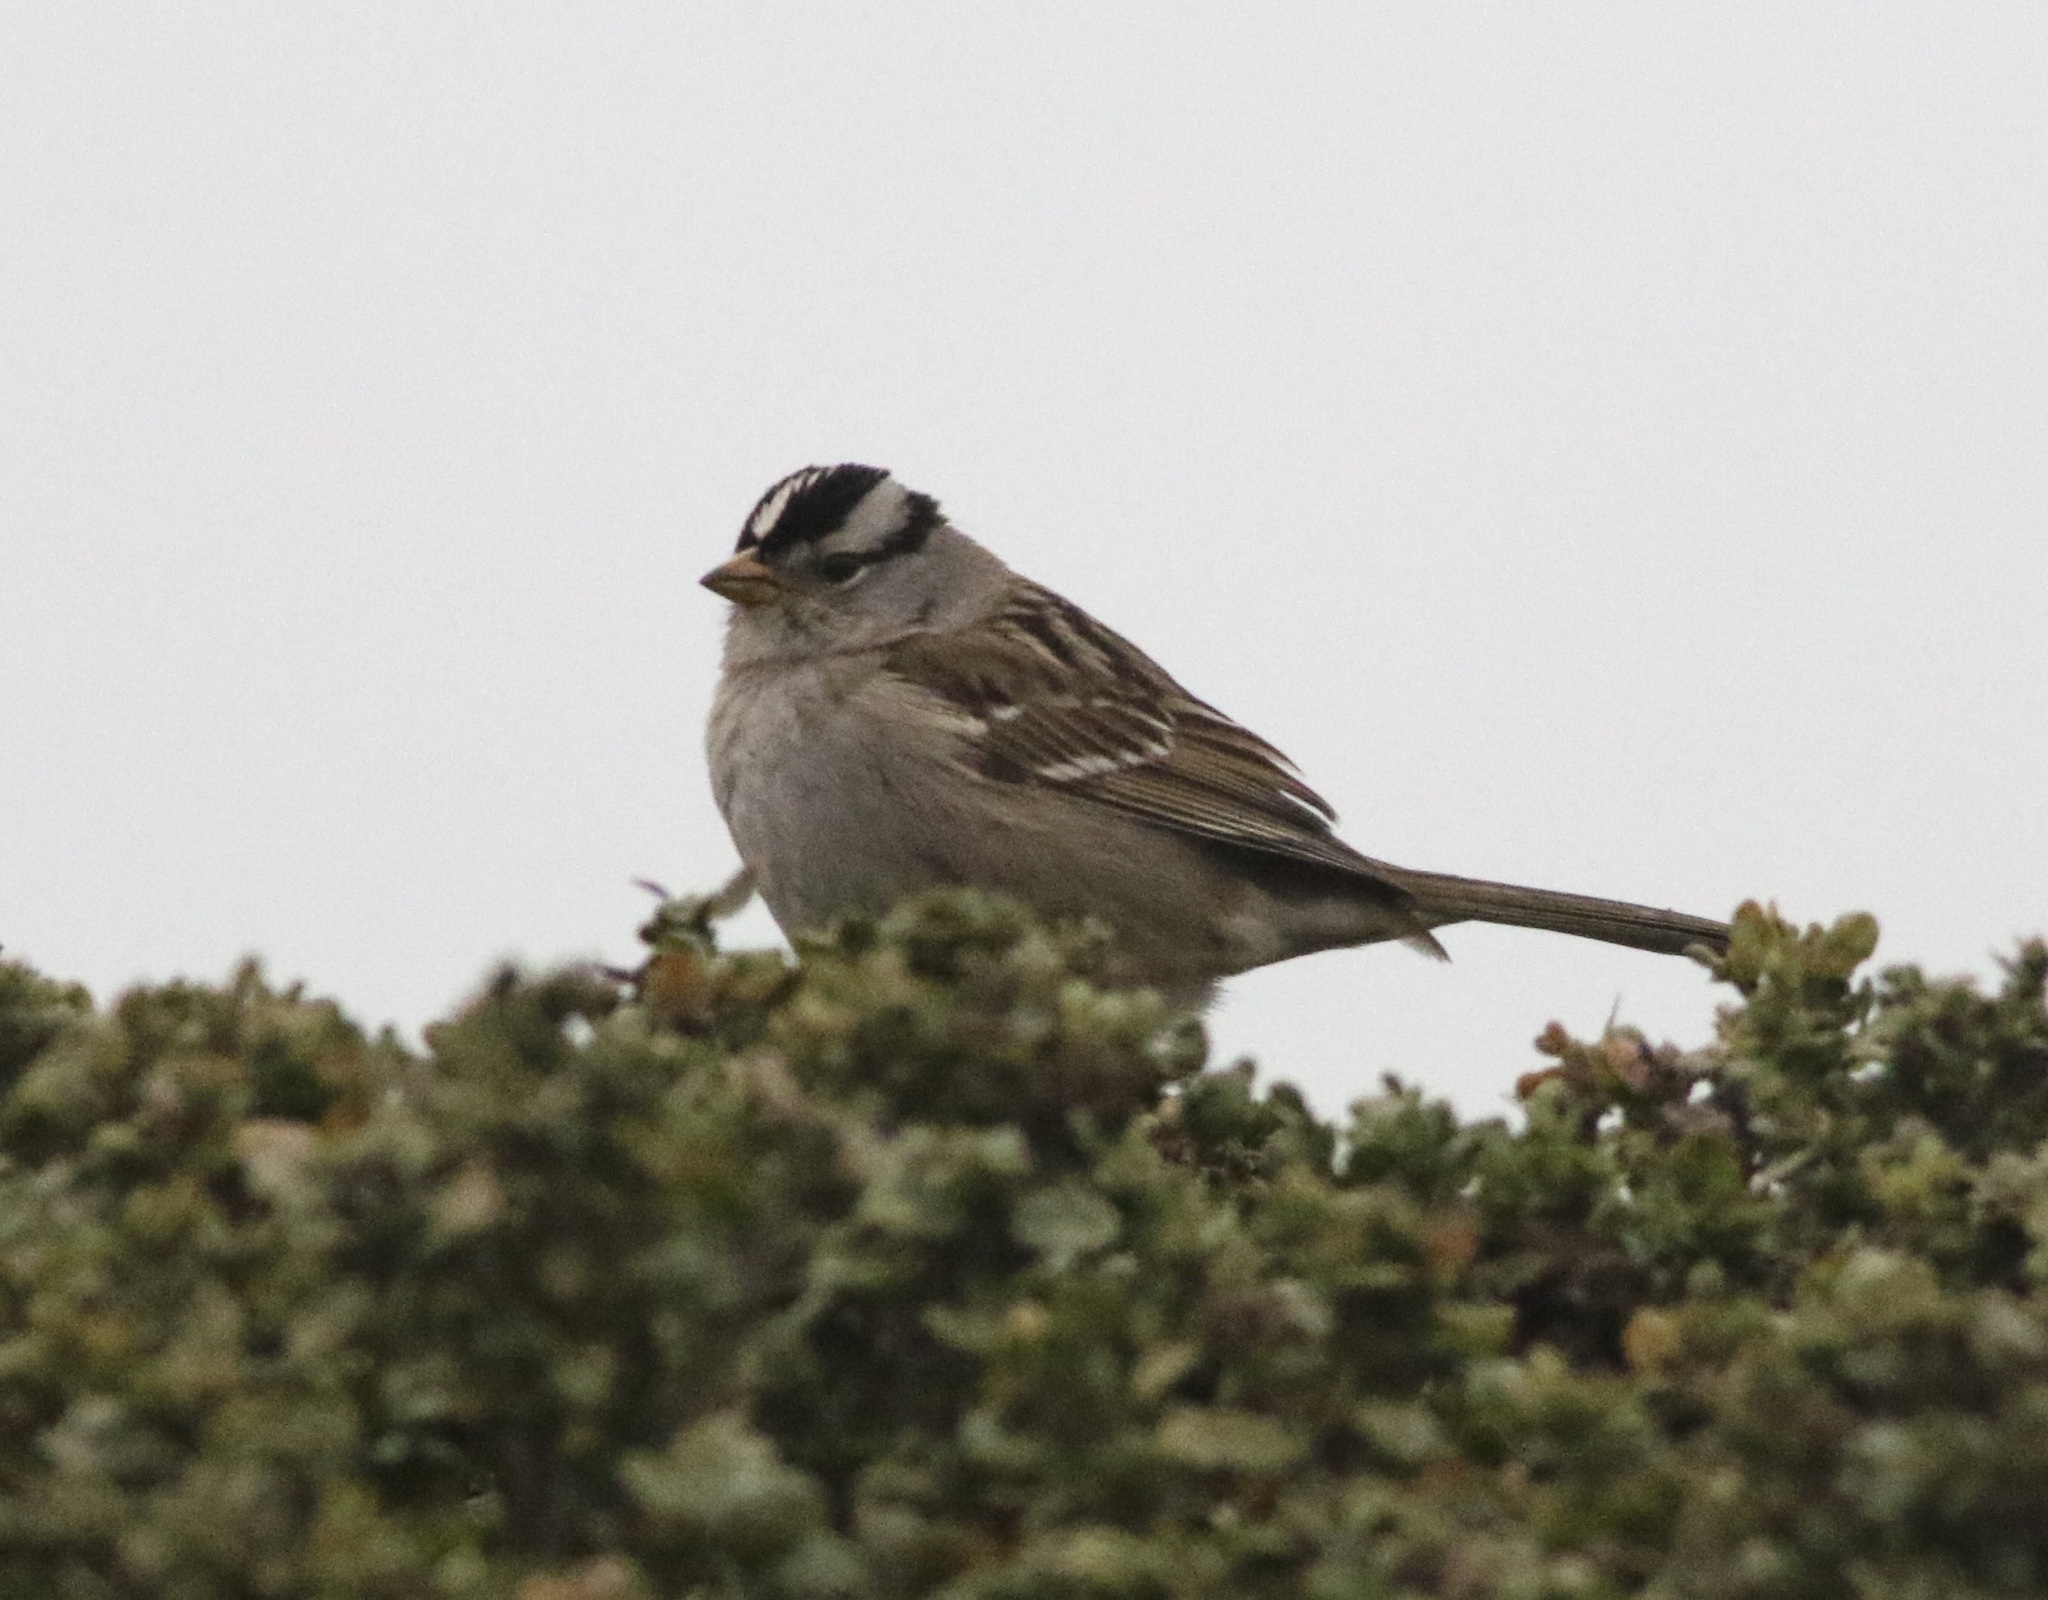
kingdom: Animalia
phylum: Chordata
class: Aves
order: Passeriformes
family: Passerellidae
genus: Zonotrichia
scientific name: Zonotrichia leucophrys
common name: White-crowned sparrow
